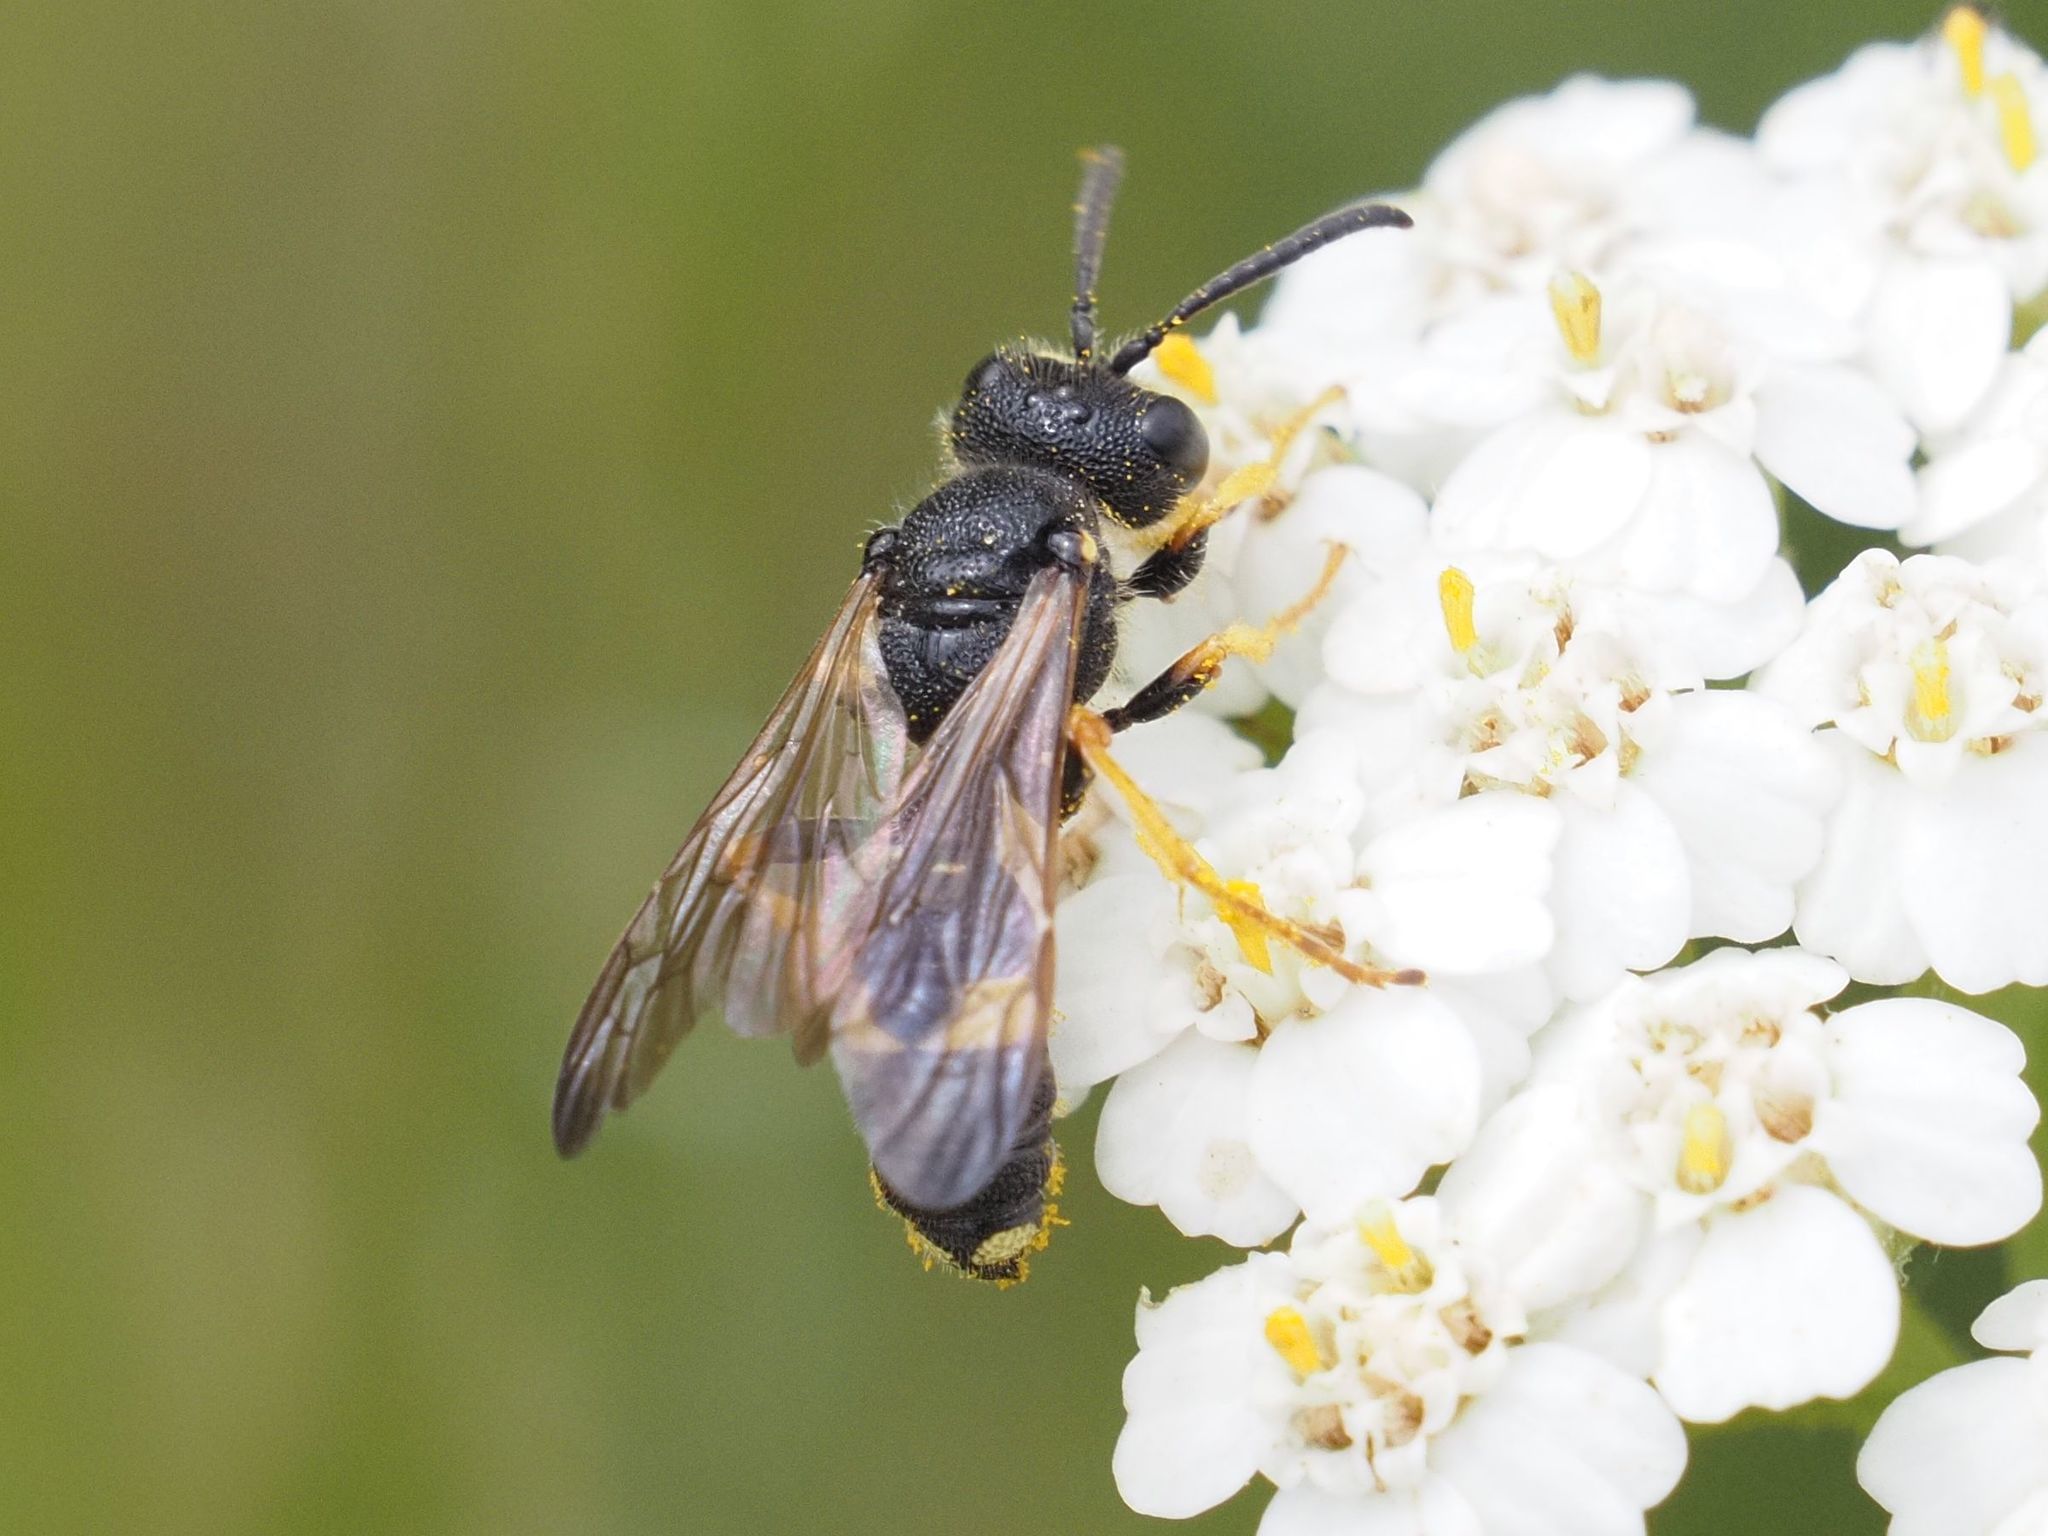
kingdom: Animalia
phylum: Arthropoda
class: Insecta
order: Hymenoptera
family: Crabronidae
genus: Cerceris
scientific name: Cerceris rybyensis
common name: Ornate tailed digger wasp
